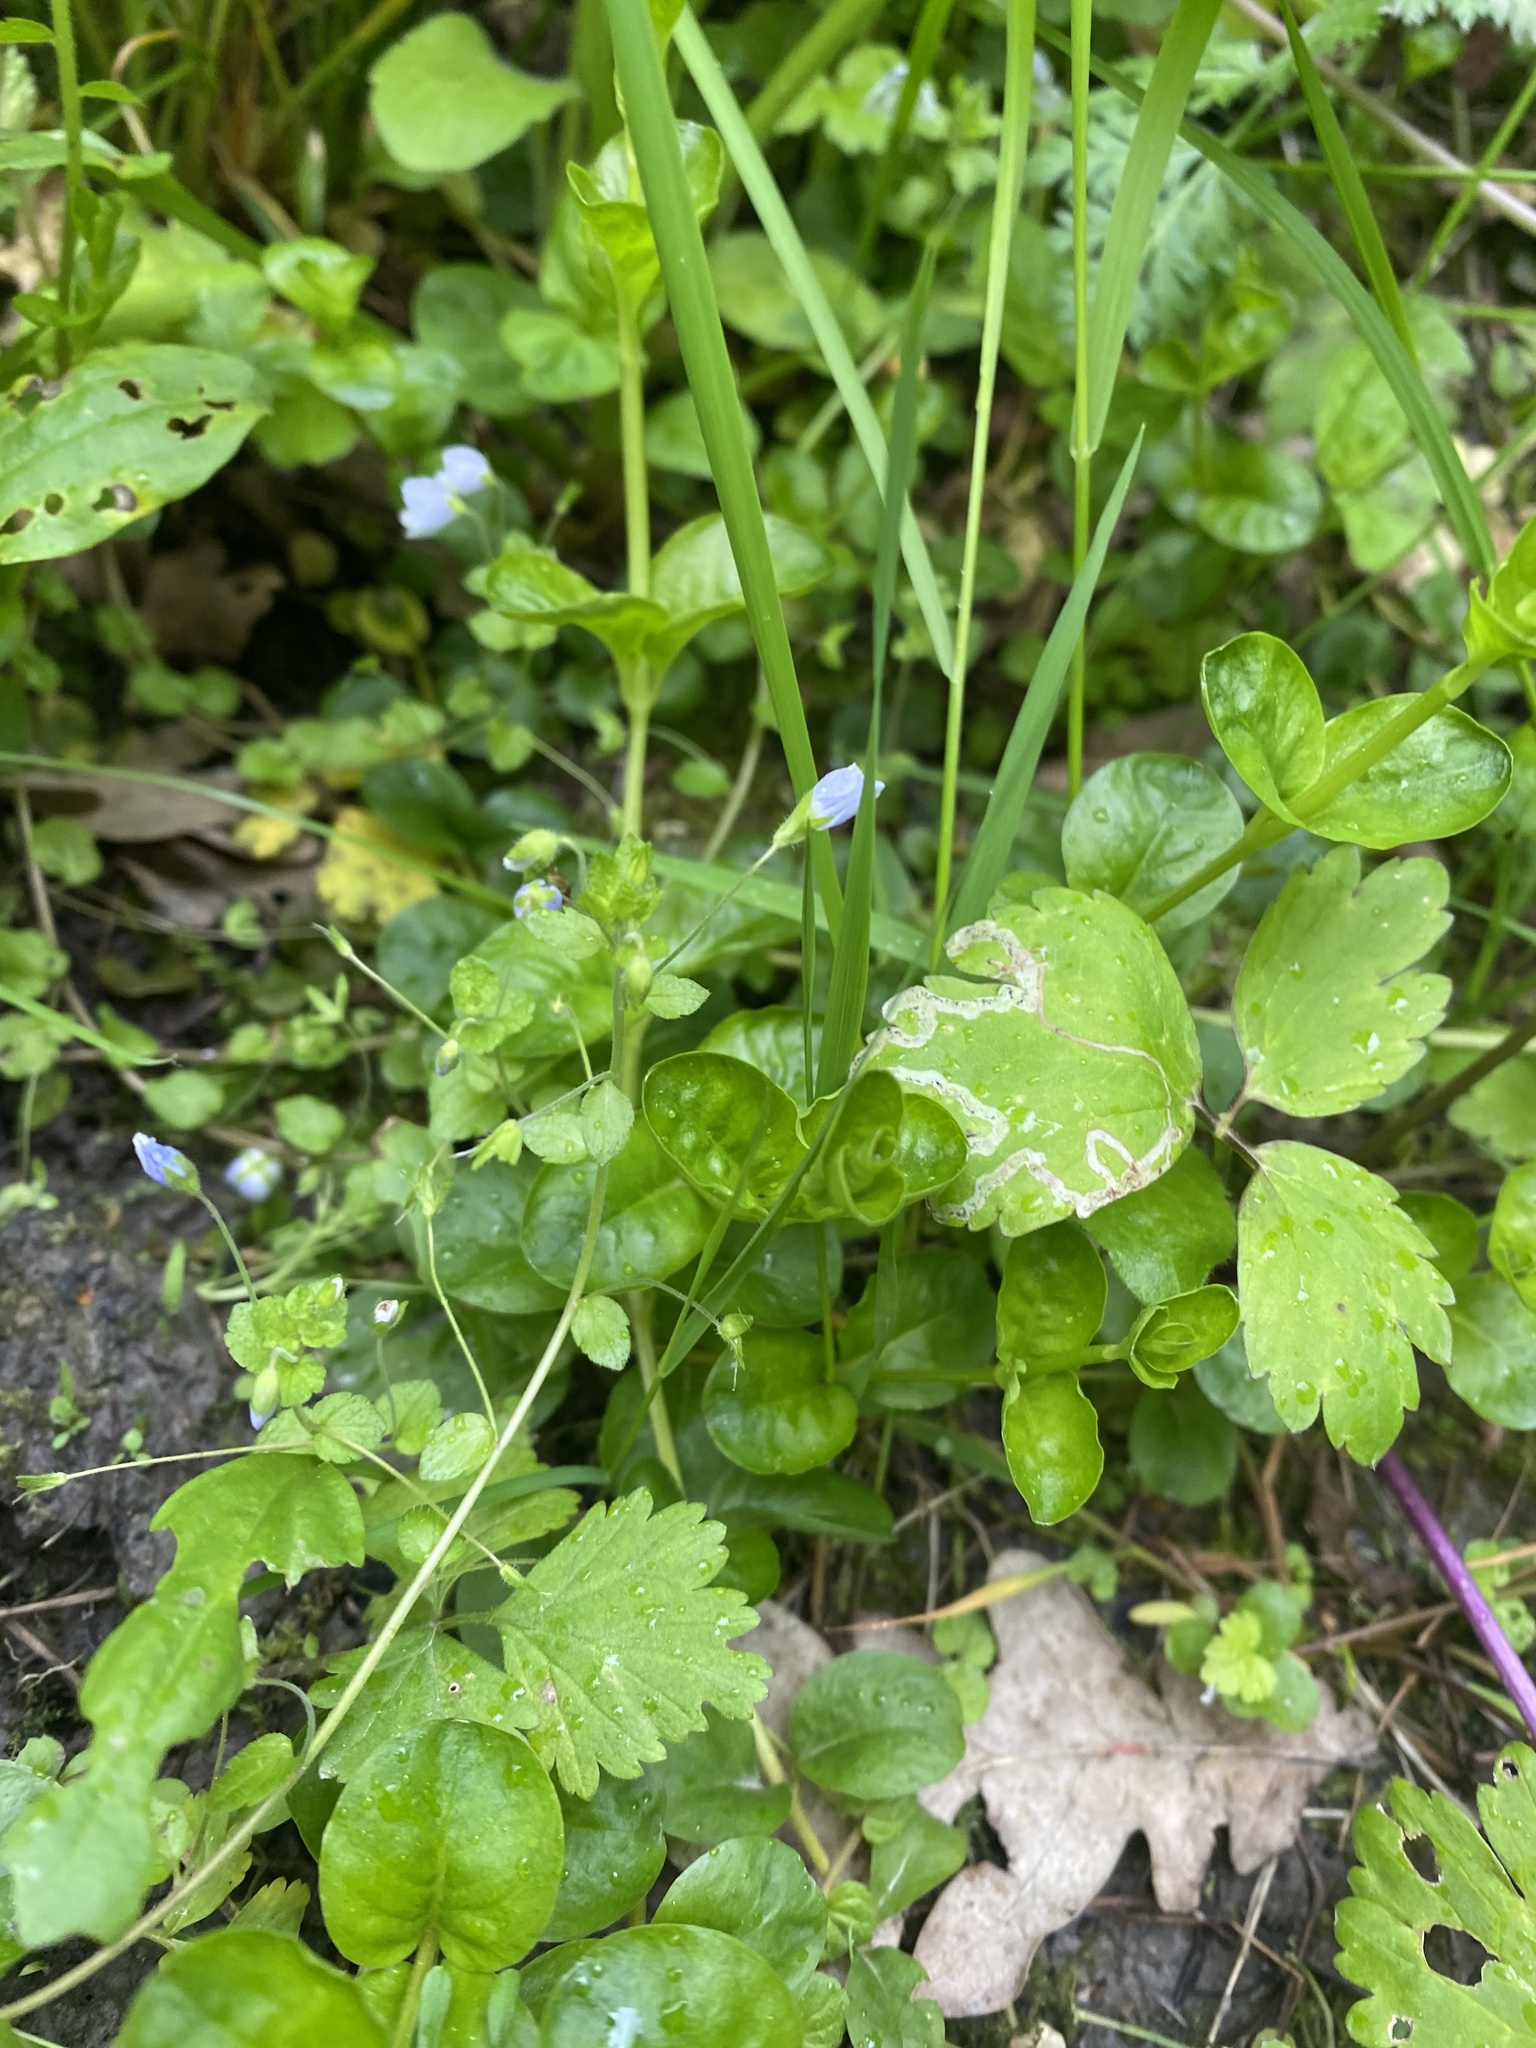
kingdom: Plantae
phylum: Tracheophyta
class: Magnoliopsida
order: Lamiales
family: Plantaginaceae
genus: Veronica
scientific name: Veronica filiformis
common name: Slender speedwell
